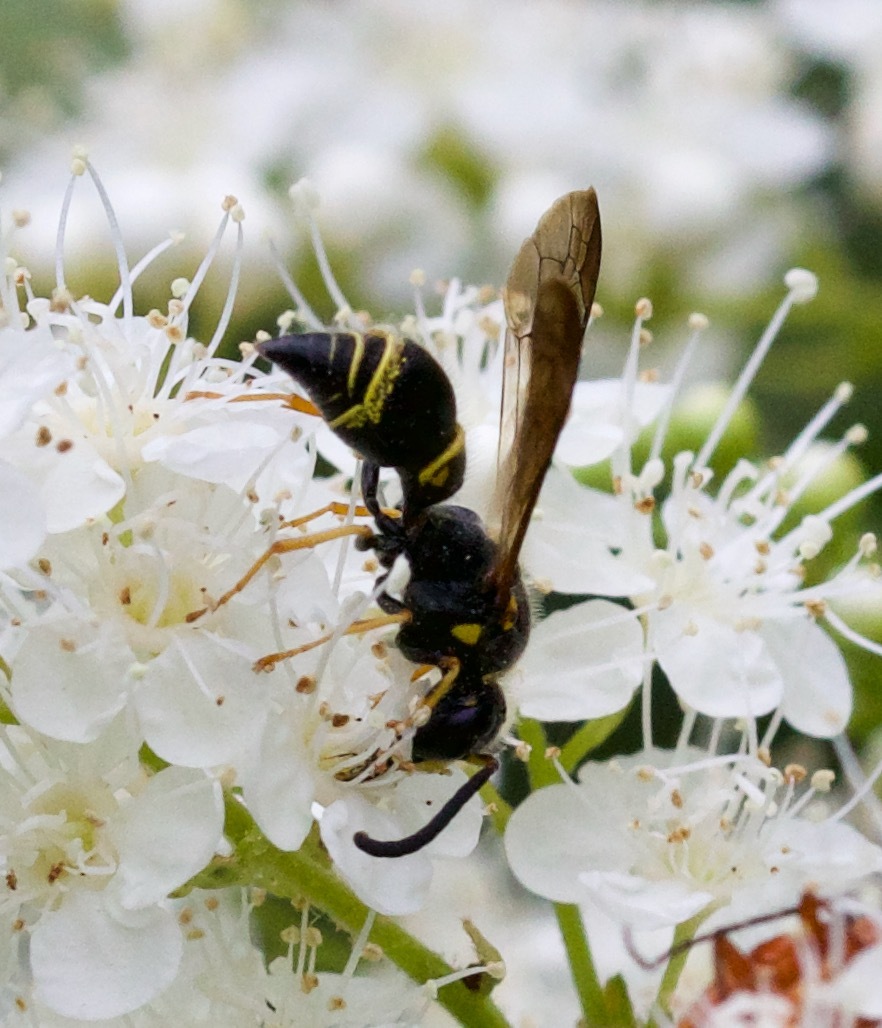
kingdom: Animalia
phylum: Arthropoda
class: Insecta
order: Hymenoptera
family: Vespidae
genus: Ancistrocerus
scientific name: Ancistrocerus campestris
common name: Smiling mason wasp
